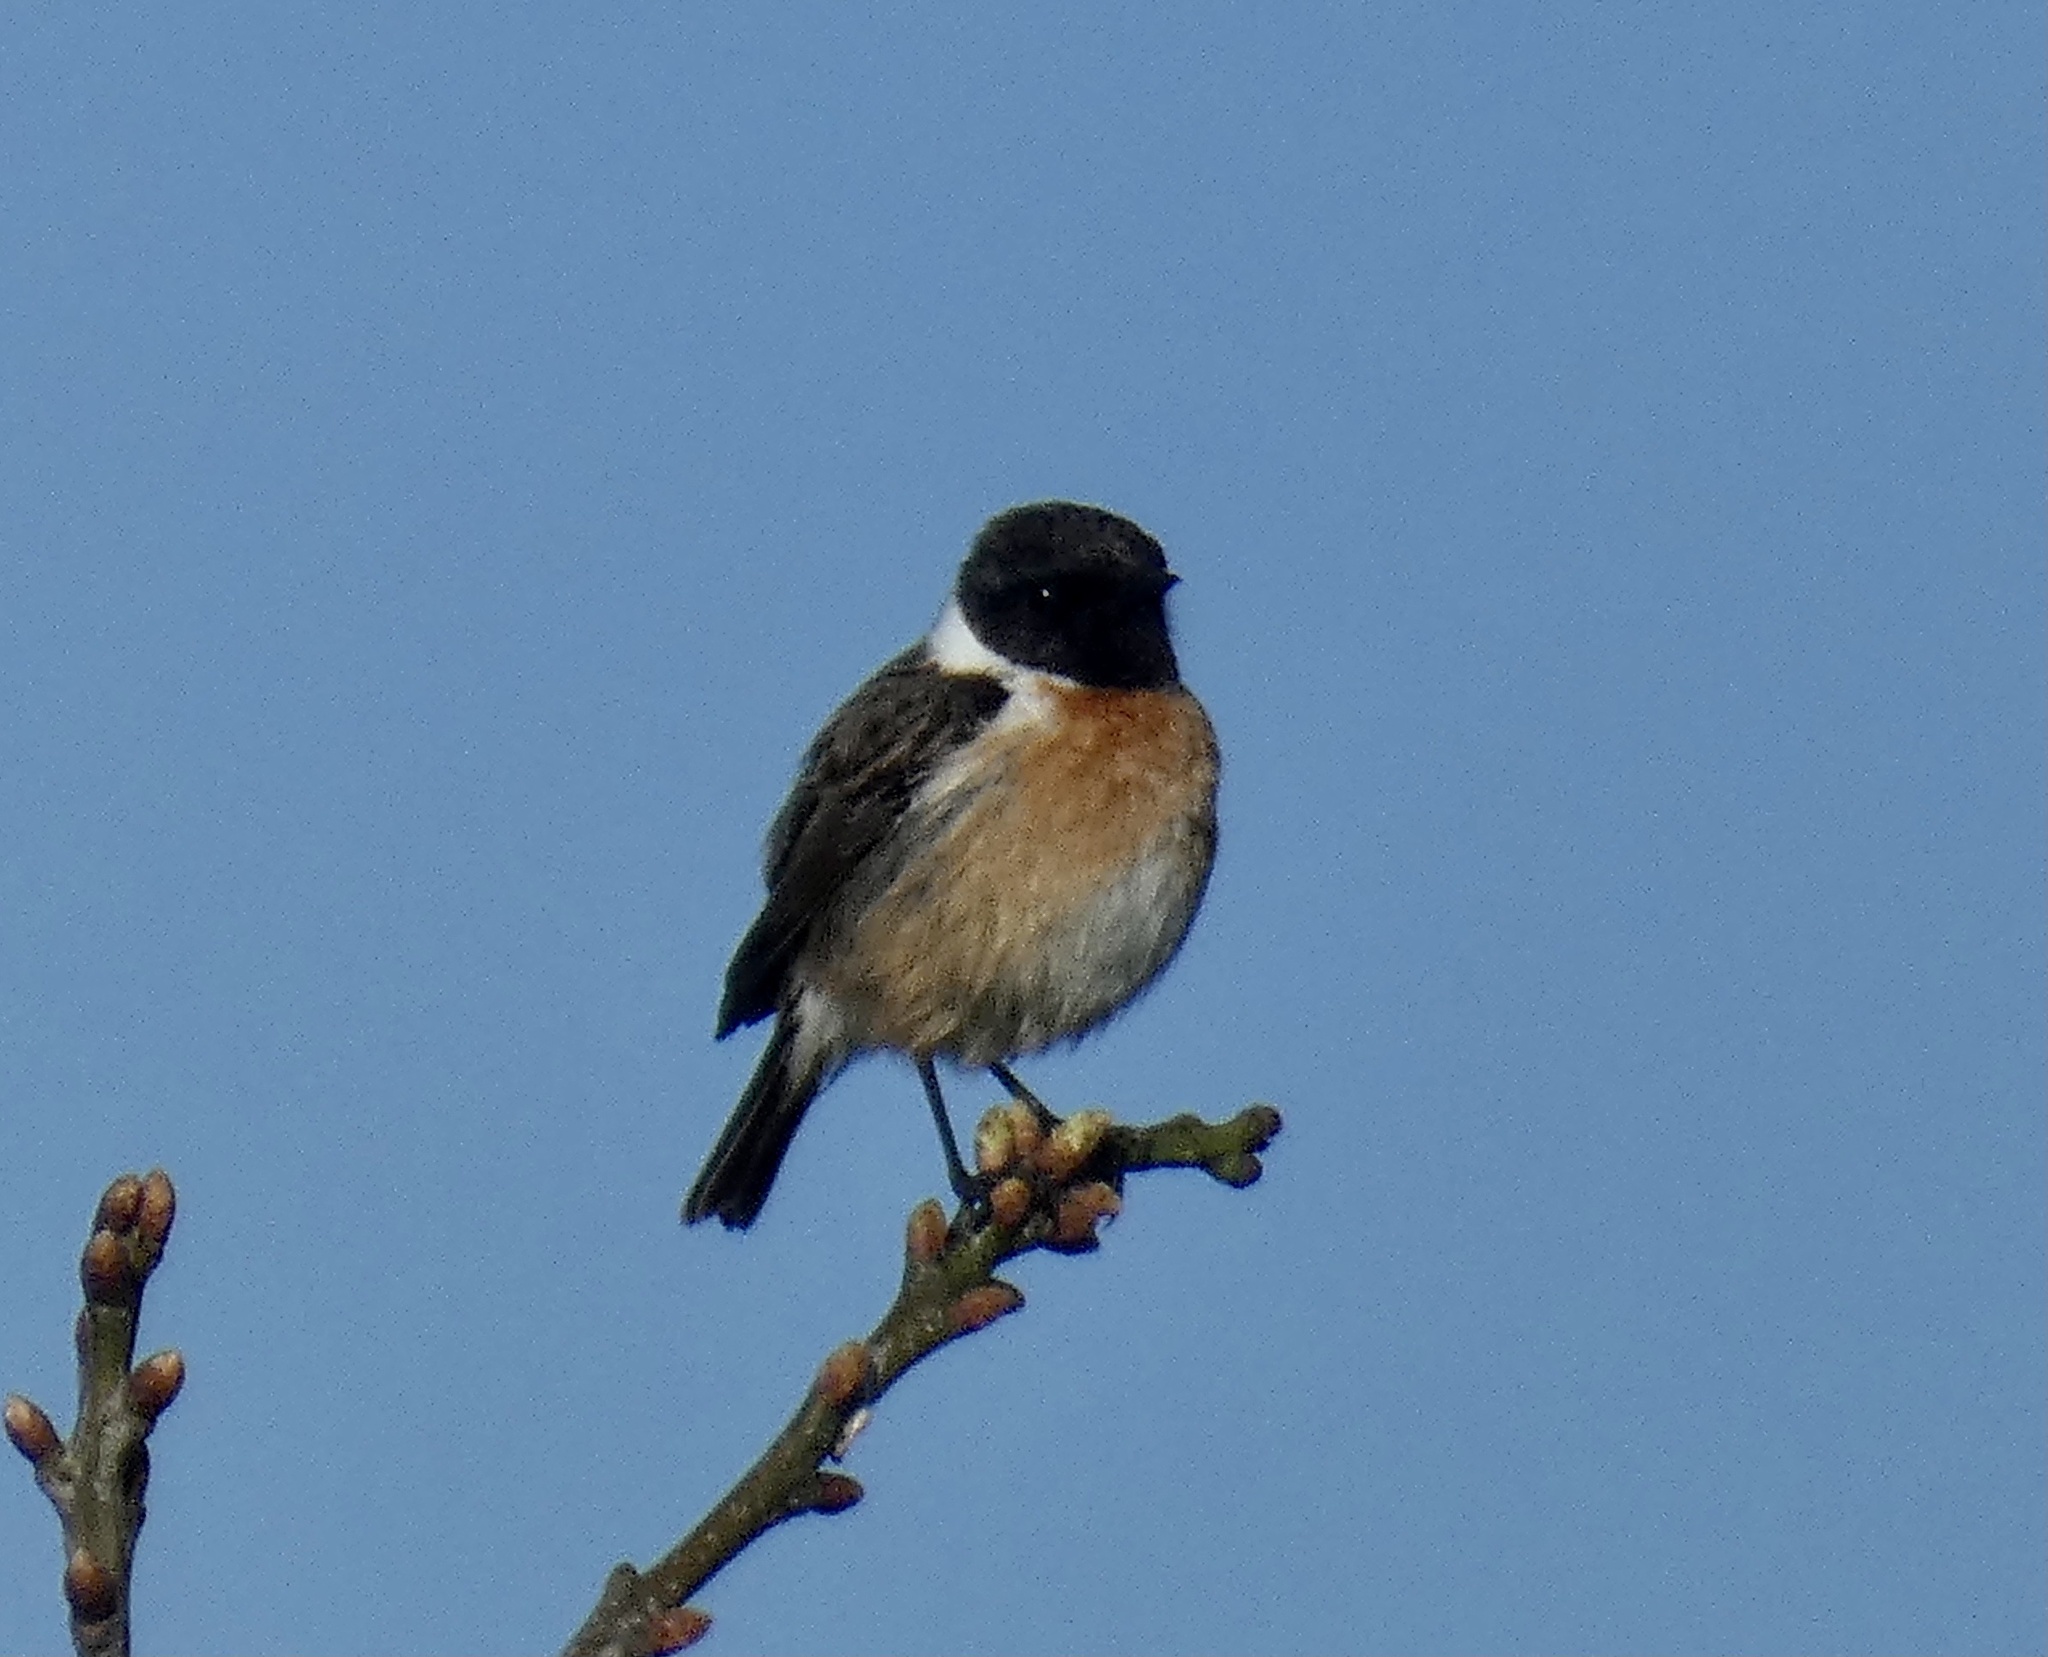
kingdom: Animalia
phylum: Chordata
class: Aves
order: Passeriformes
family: Muscicapidae
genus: Saxicola
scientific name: Saxicola rubicola
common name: European stonechat
